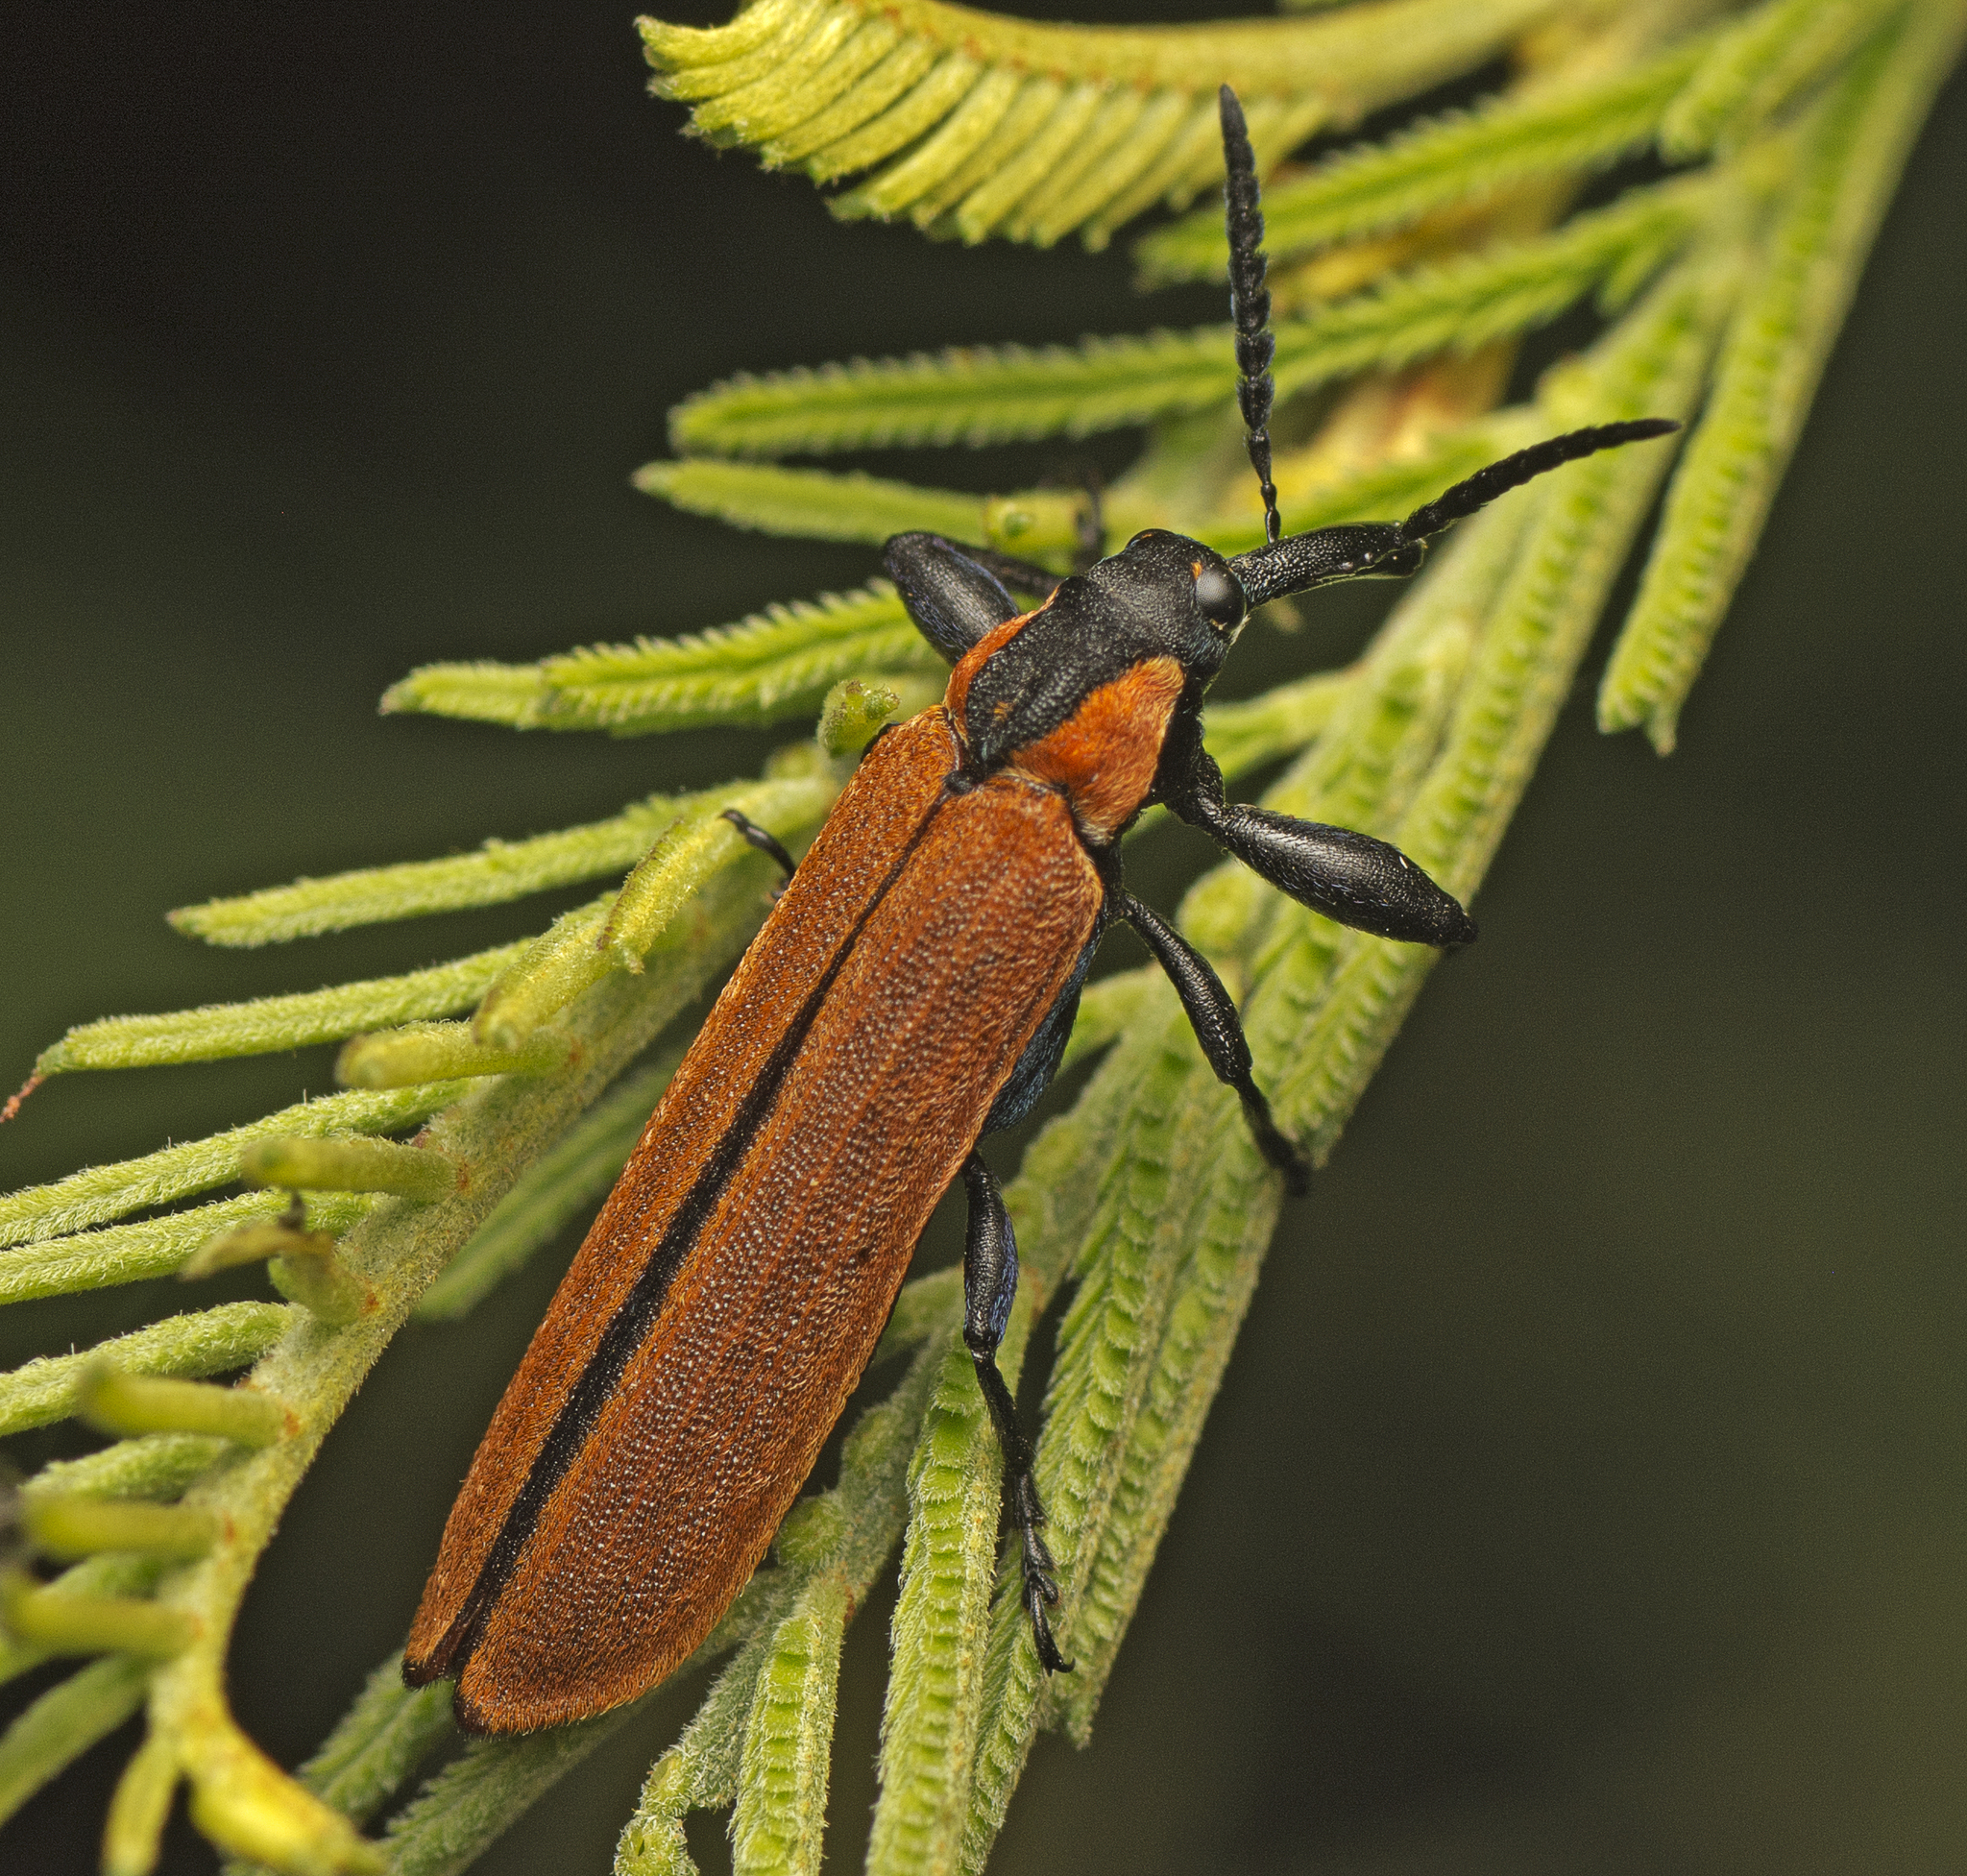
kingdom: Animalia
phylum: Arthropoda
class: Insecta
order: Coleoptera
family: Belidae
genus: Rhinotia
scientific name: Rhinotia venusta
